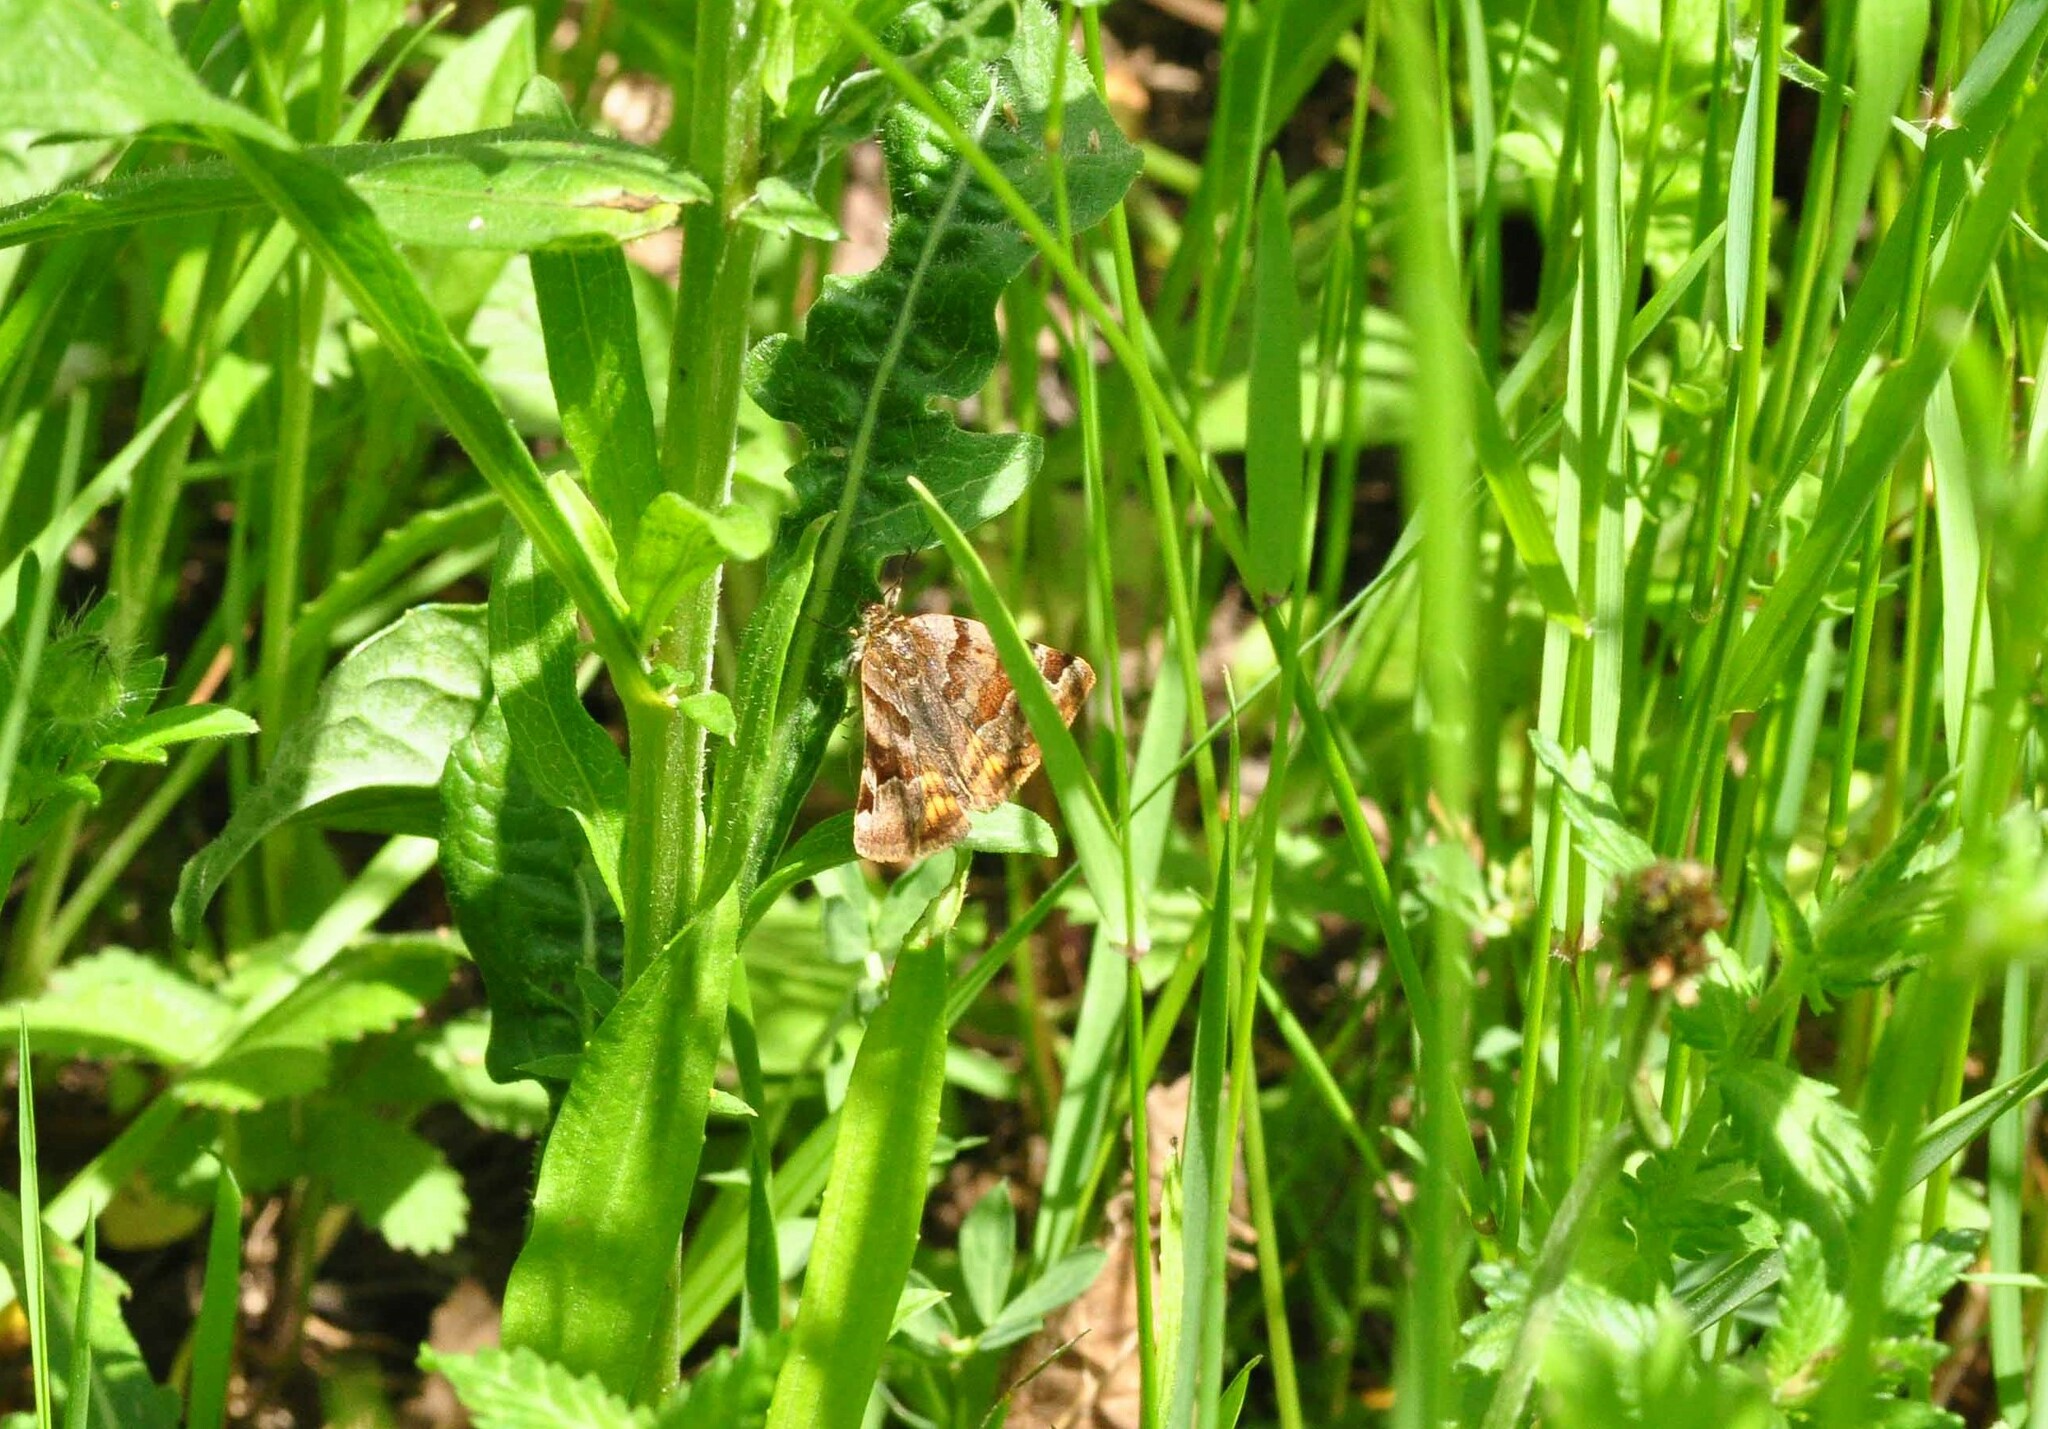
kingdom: Animalia
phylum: Arthropoda
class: Insecta
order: Lepidoptera
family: Erebidae
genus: Euclidia
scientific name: Euclidia glyphica
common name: Burnet companion
